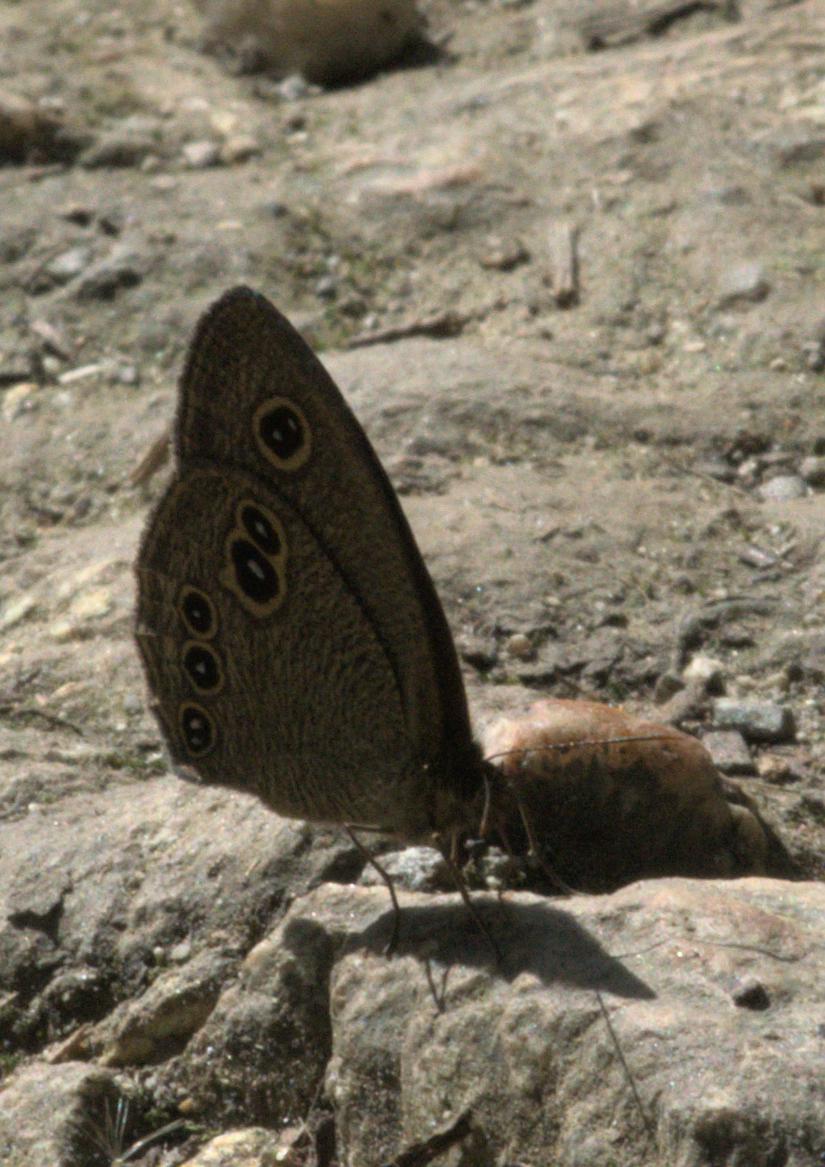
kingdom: Animalia
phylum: Arthropoda
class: Insecta
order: Lepidoptera
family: Nymphalidae
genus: Ypthima
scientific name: Ypthima nikaea
